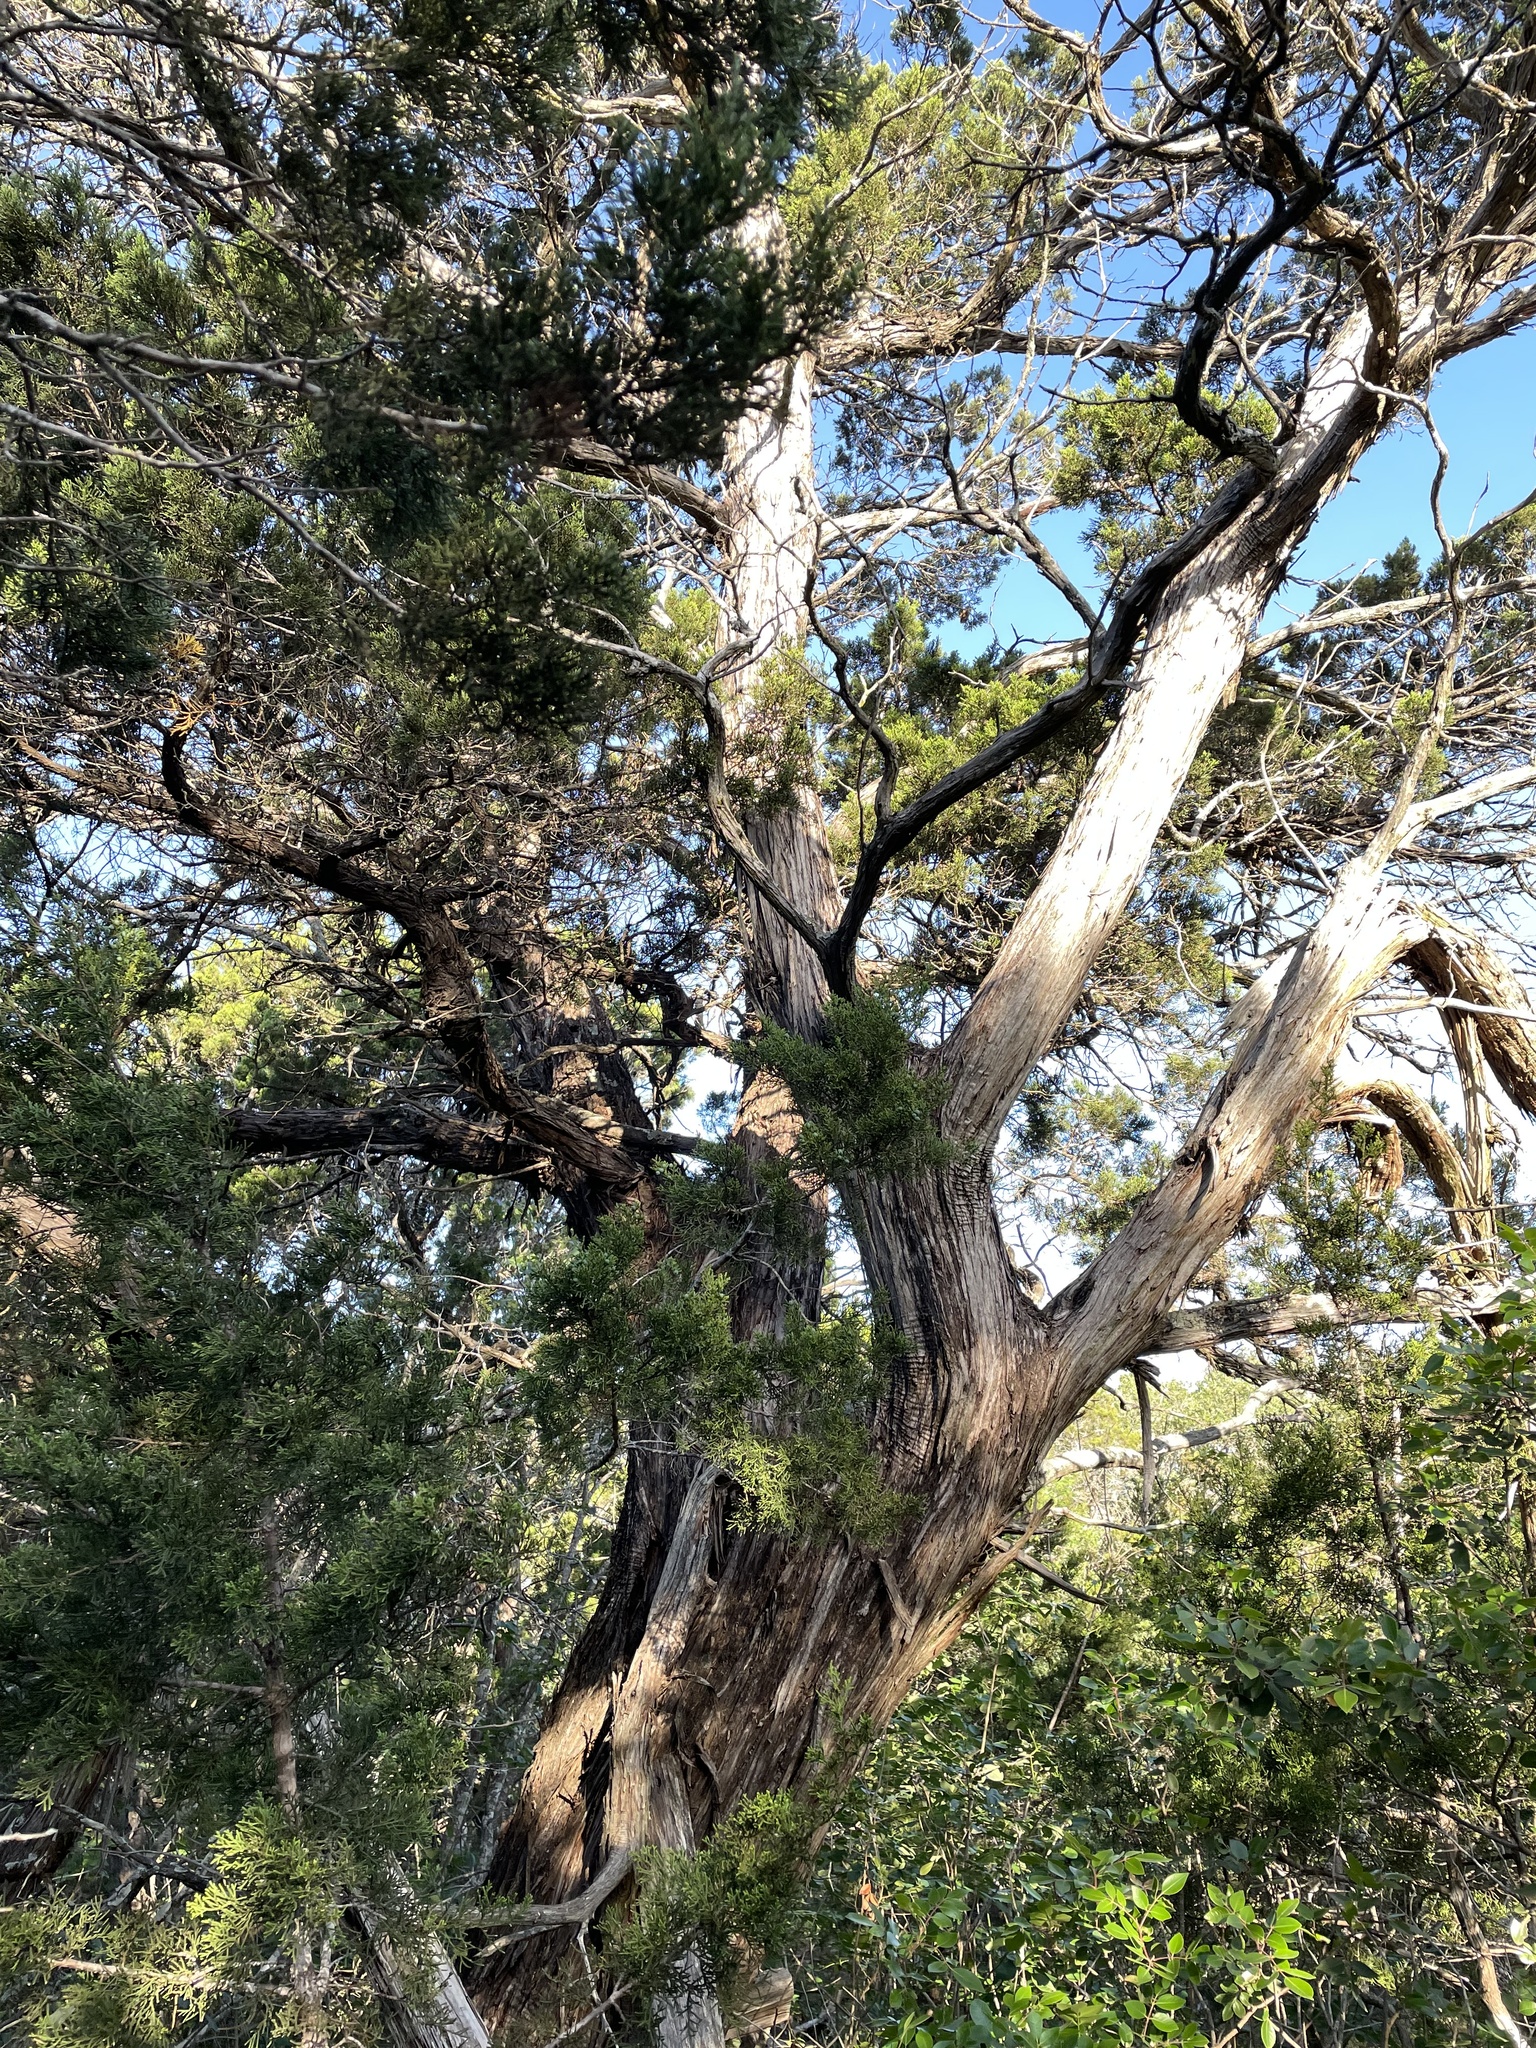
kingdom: Plantae
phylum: Tracheophyta
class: Pinopsida
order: Pinales
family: Cupressaceae
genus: Juniperus
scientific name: Juniperus ashei
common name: Mexican juniper
